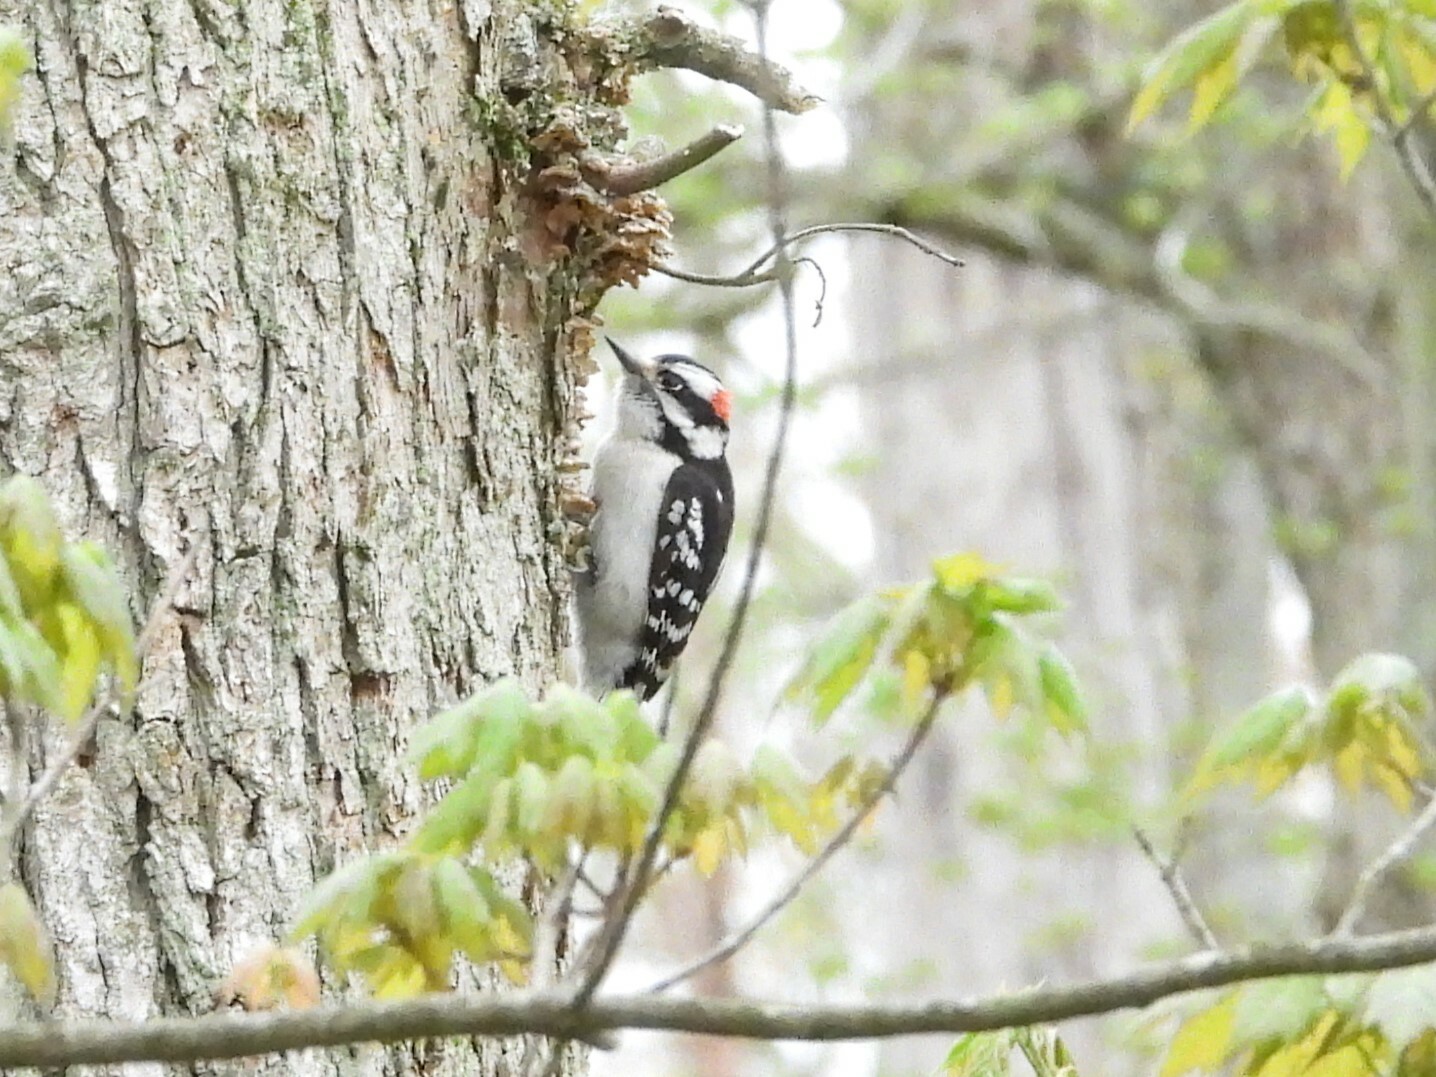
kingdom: Animalia
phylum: Chordata
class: Aves
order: Piciformes
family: Picidae
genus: Dryobates
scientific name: Dryobates pubescens
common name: Downy woodpecker
